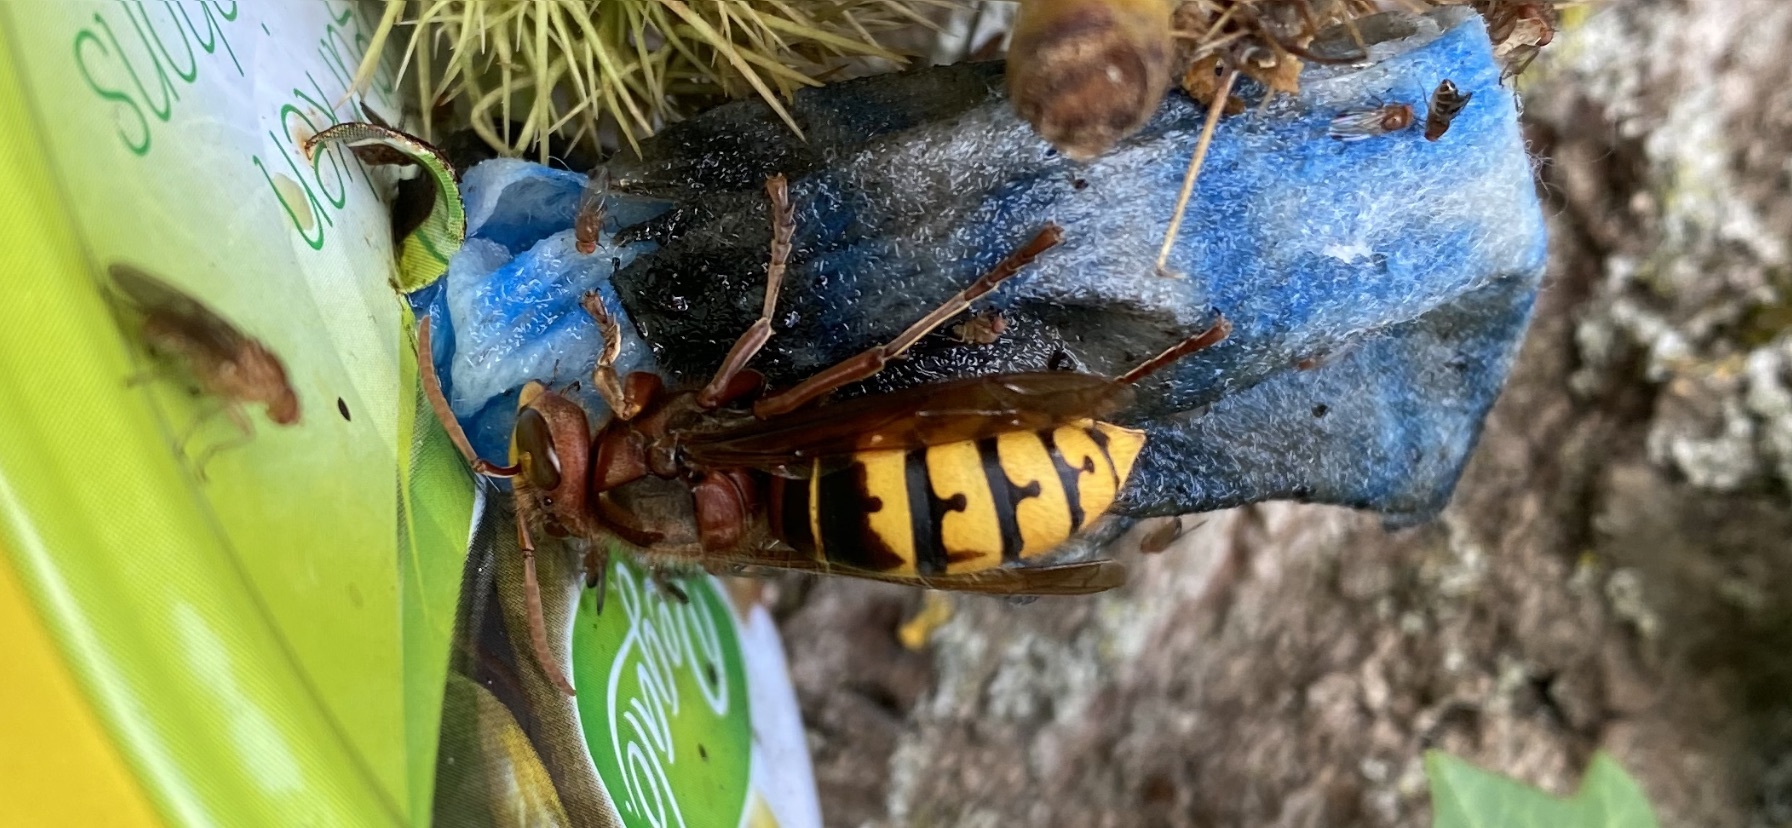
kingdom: Animalia
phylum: Arthropoda
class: Insecta
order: Hymenoptera
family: Vespidae
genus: Vespa
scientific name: Vespa crabro
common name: Hornet
